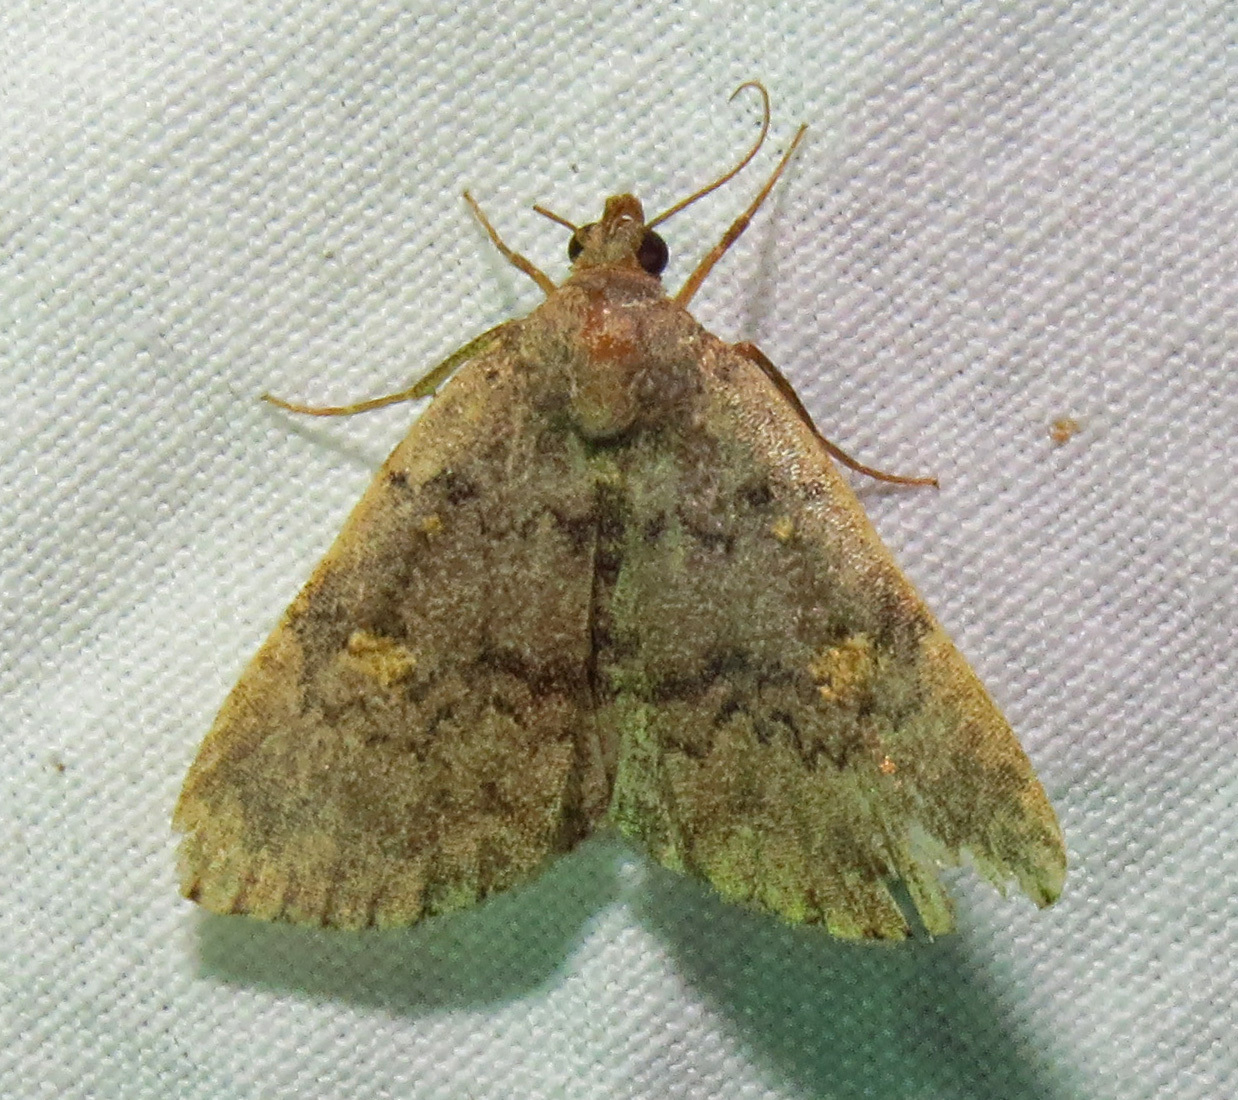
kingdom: Animalia
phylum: Arthropoda
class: Insecta
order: Lepidoptera
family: Erebidae
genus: Idia
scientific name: Idia aemula
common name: Common idia moth
